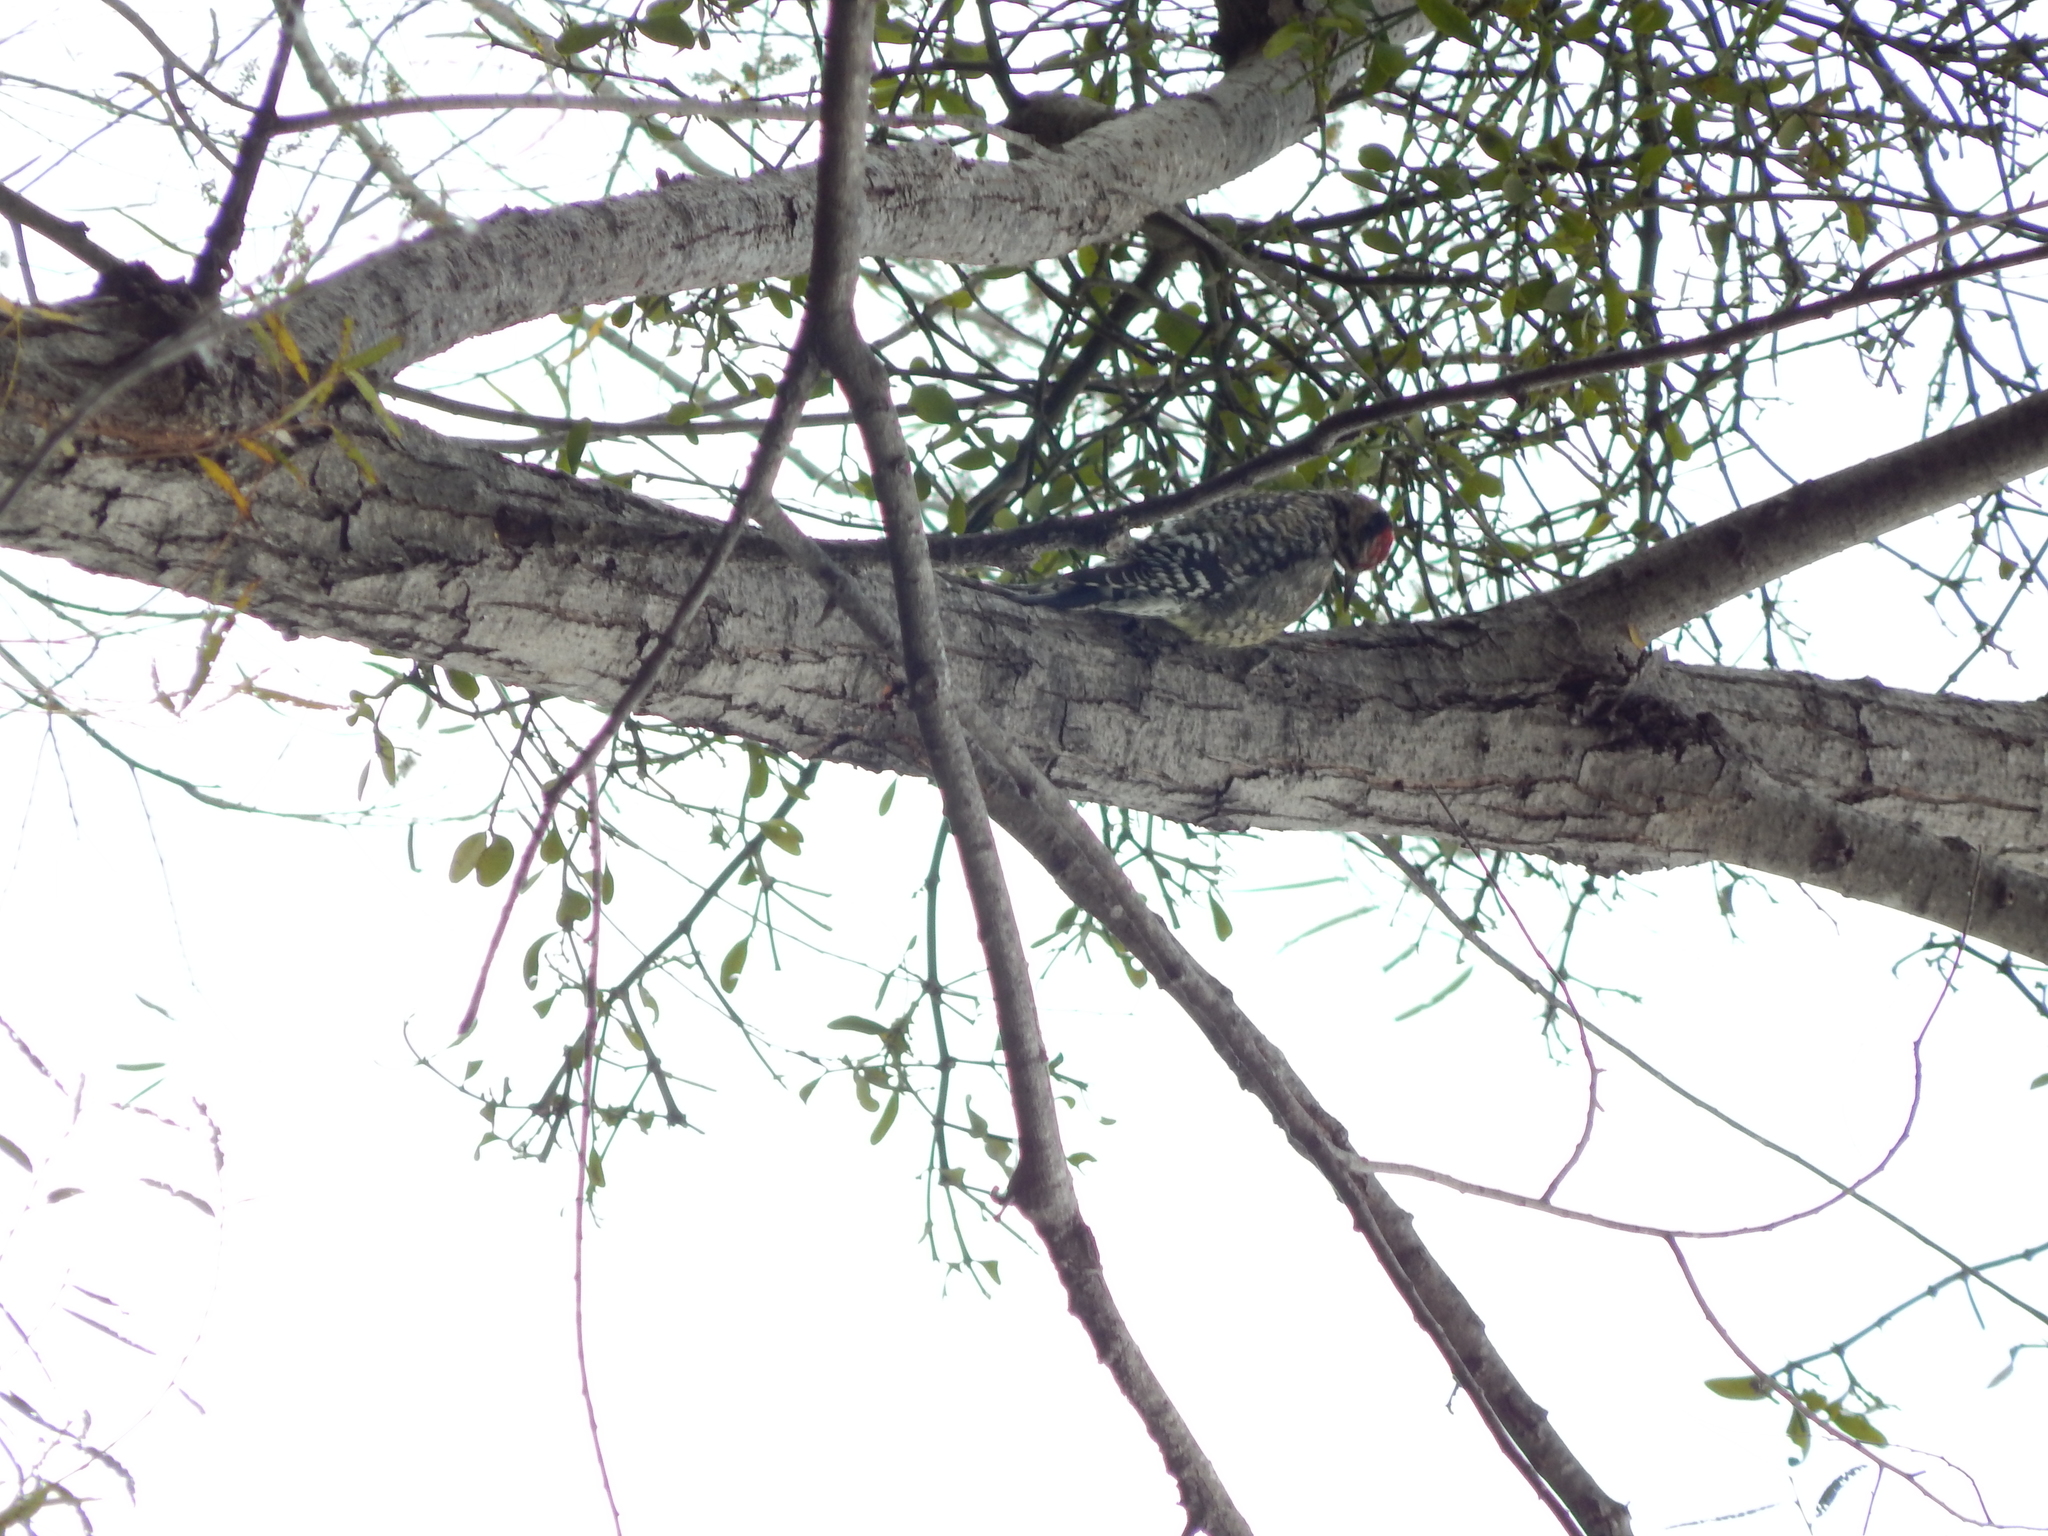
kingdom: Animalia
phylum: Chordata
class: Aves
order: Piciformes
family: Picidae
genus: Sphyrapicus
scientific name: Sphyrapicus varius
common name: Yellow-bellied sapsucker
